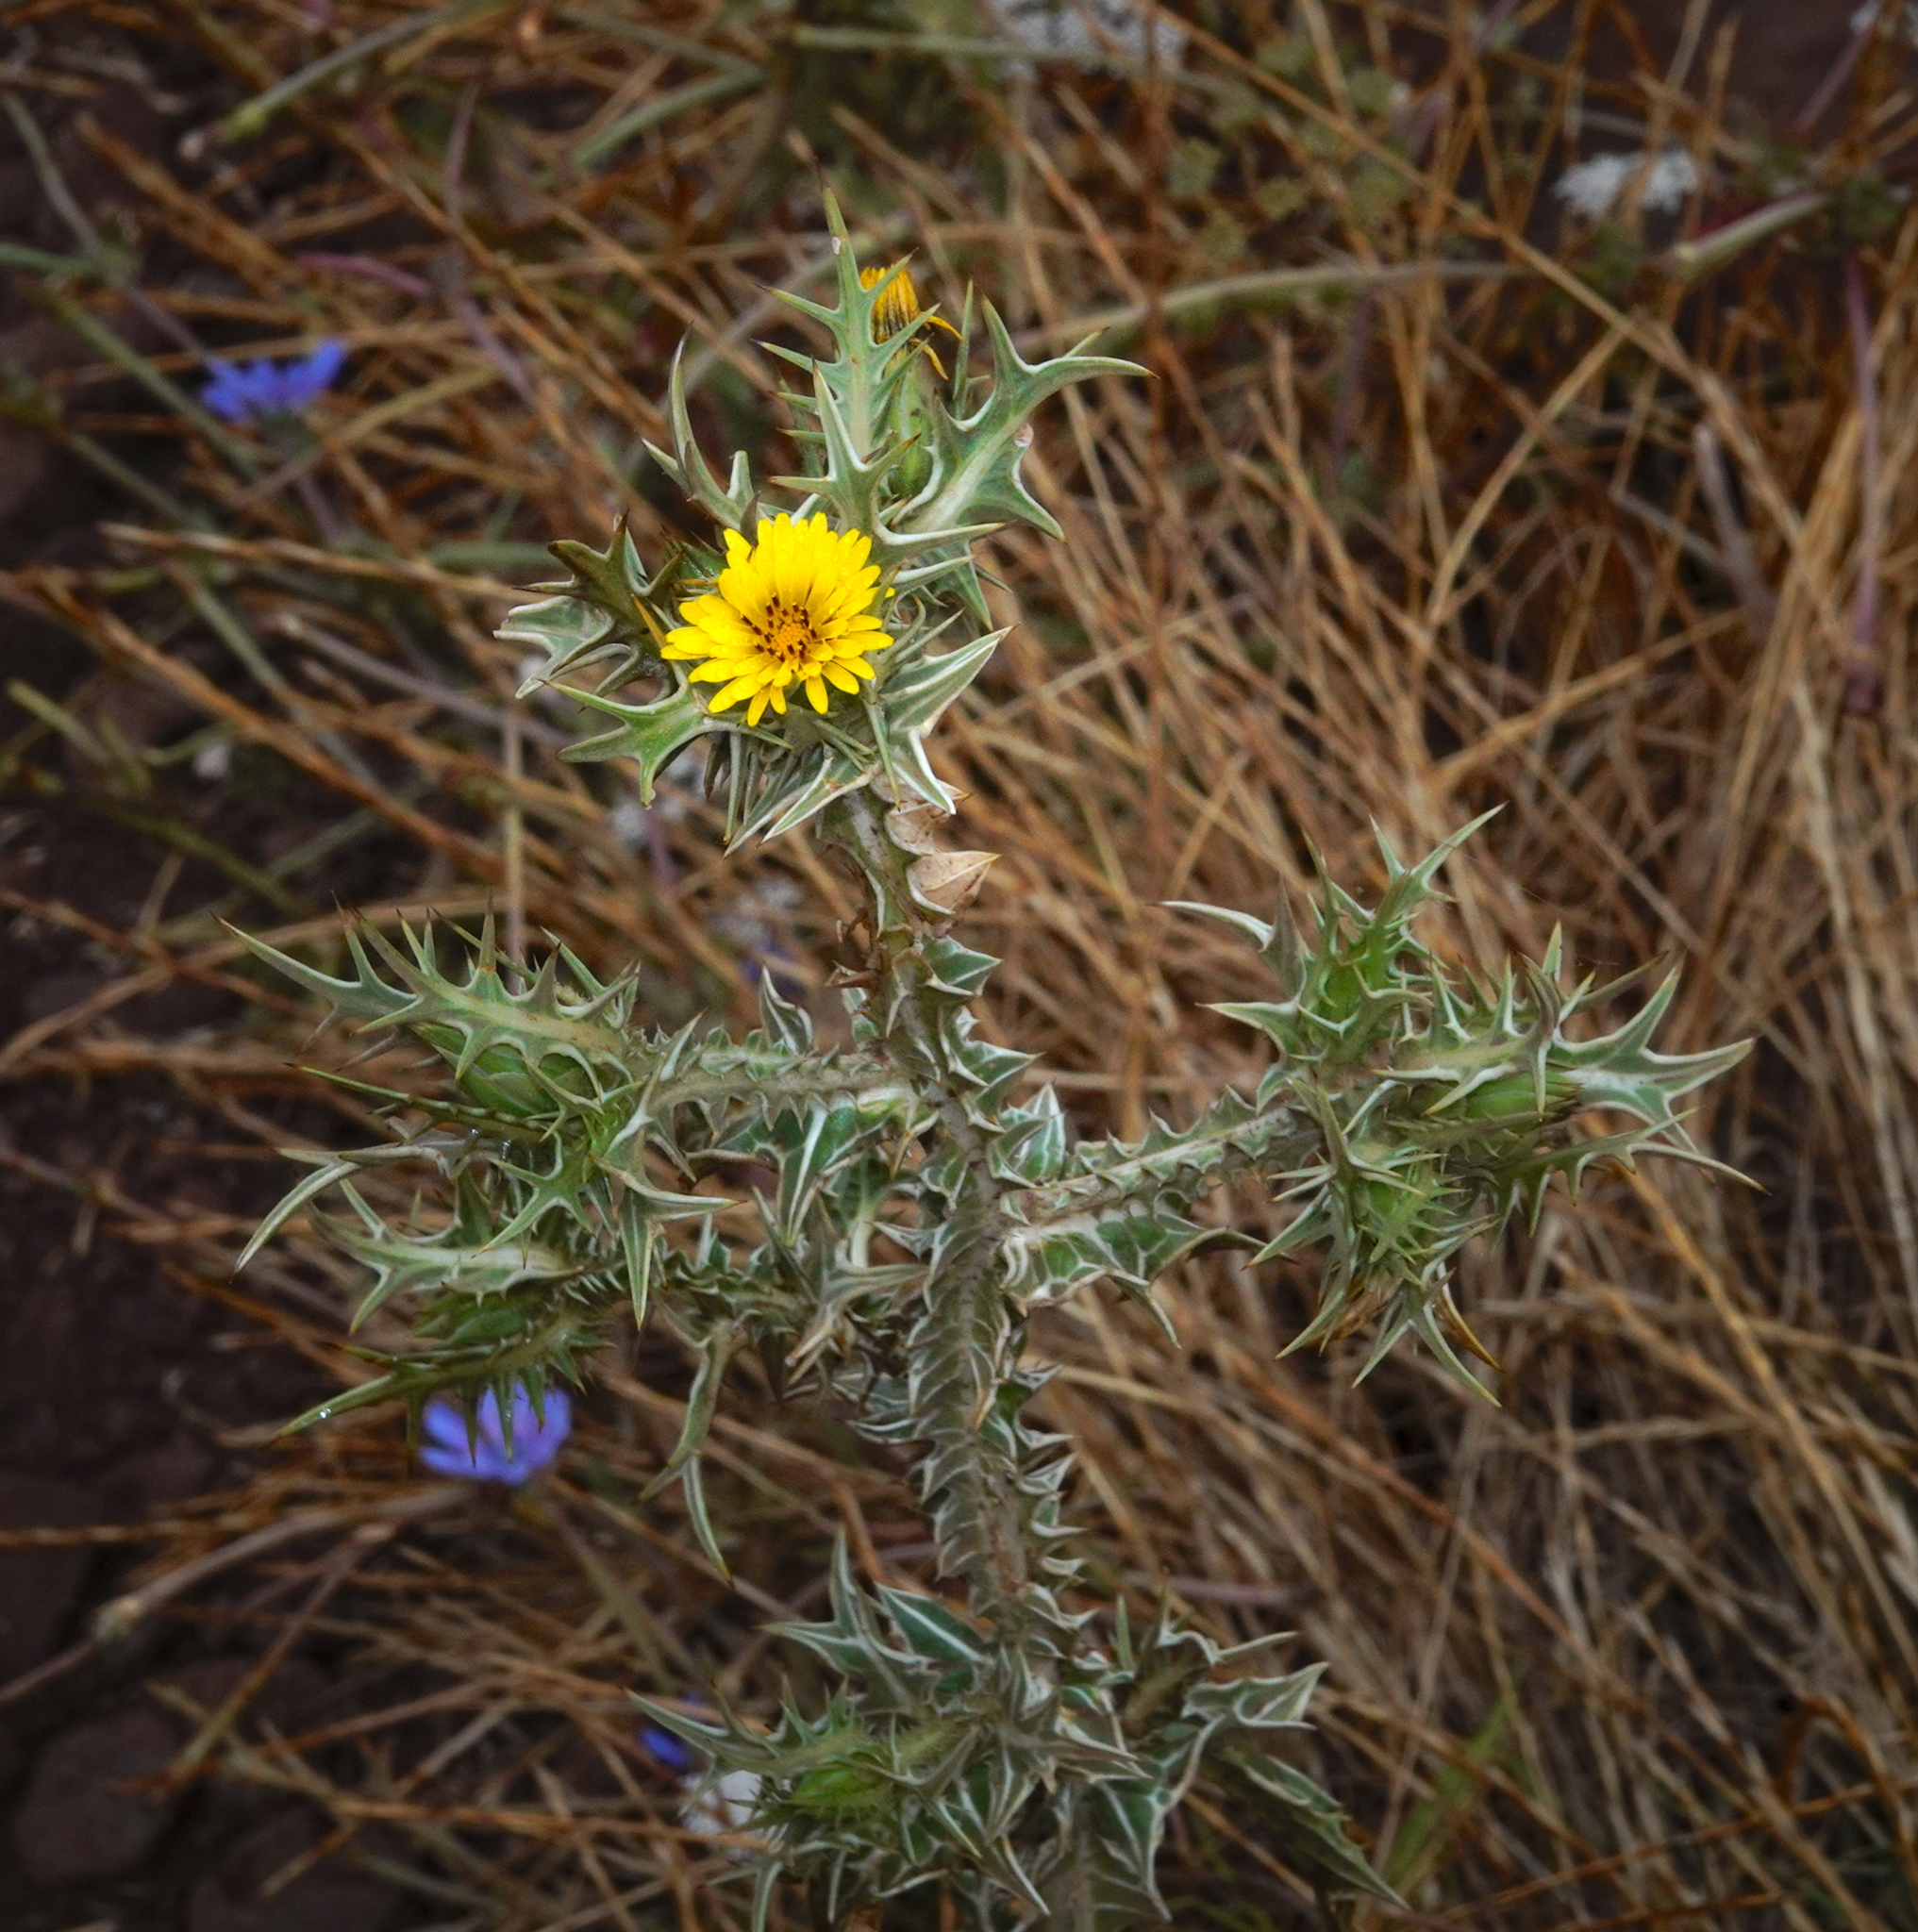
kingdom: Plantae
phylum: Tracheophyta
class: Magnoliopsida
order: Asterales
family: Asteraceae
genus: Scolymus
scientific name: Scolymus maculatus
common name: Spotted thistle
